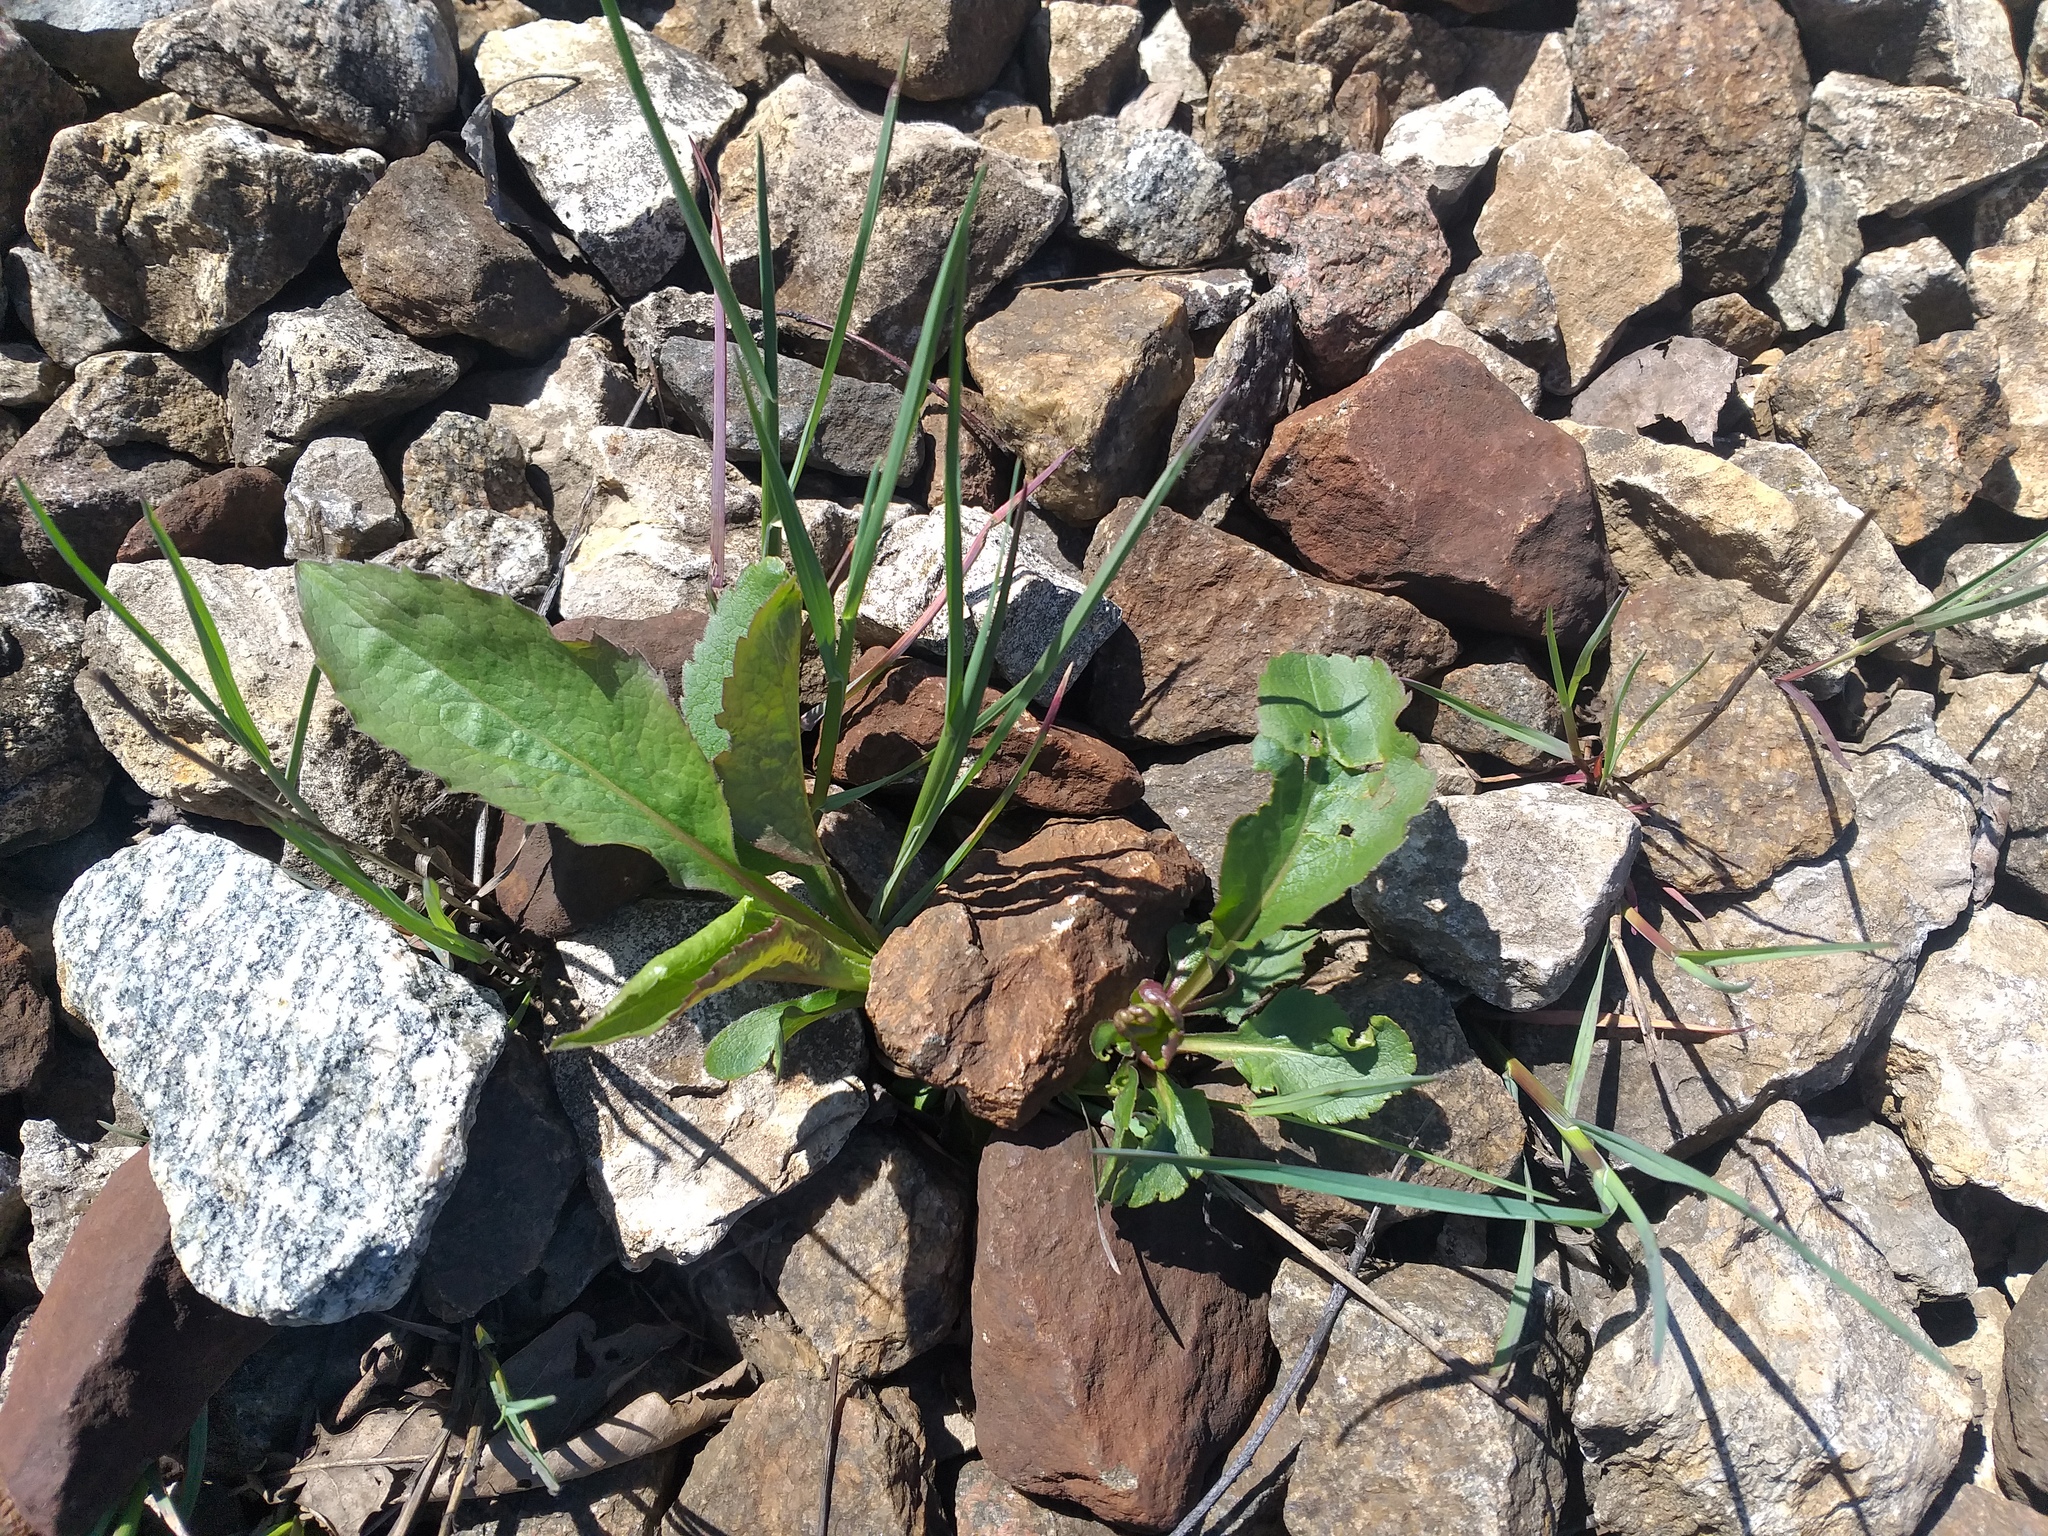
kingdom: Plantae
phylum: Tracheophyta
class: Magnoliopsida
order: Asterales
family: Asteraceae
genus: Solidago
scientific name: Solidago virgaurea
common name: Goldenrod
